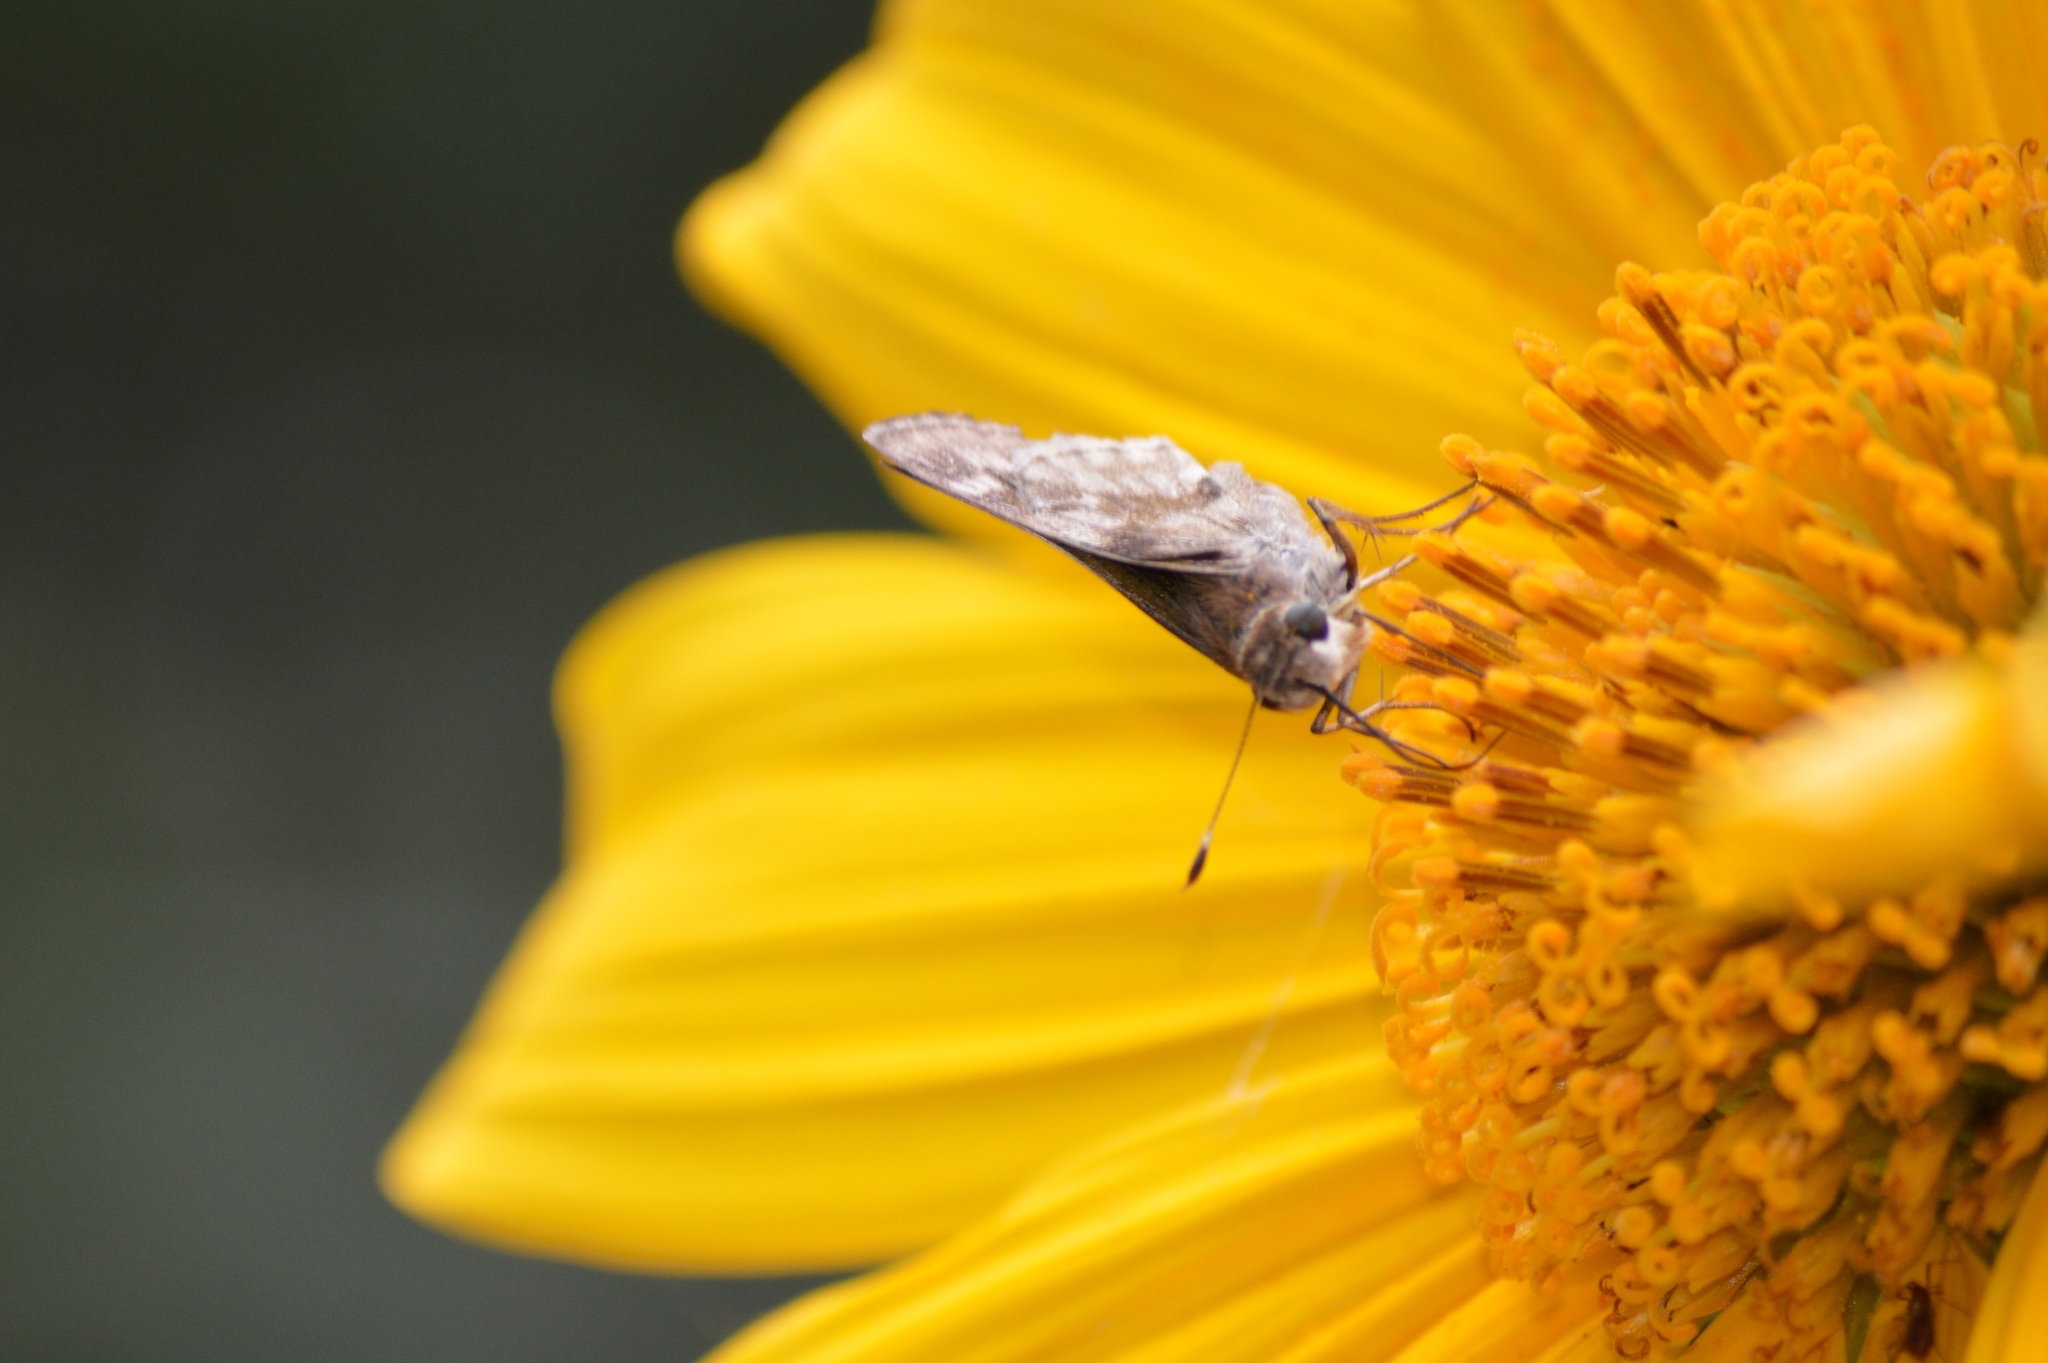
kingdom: Animalia
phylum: Arthropoda
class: Insecta
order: Lepidoptera
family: Hesperiidae
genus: Pompeius
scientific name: Pompeius pompeius
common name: Pompeius skipper
